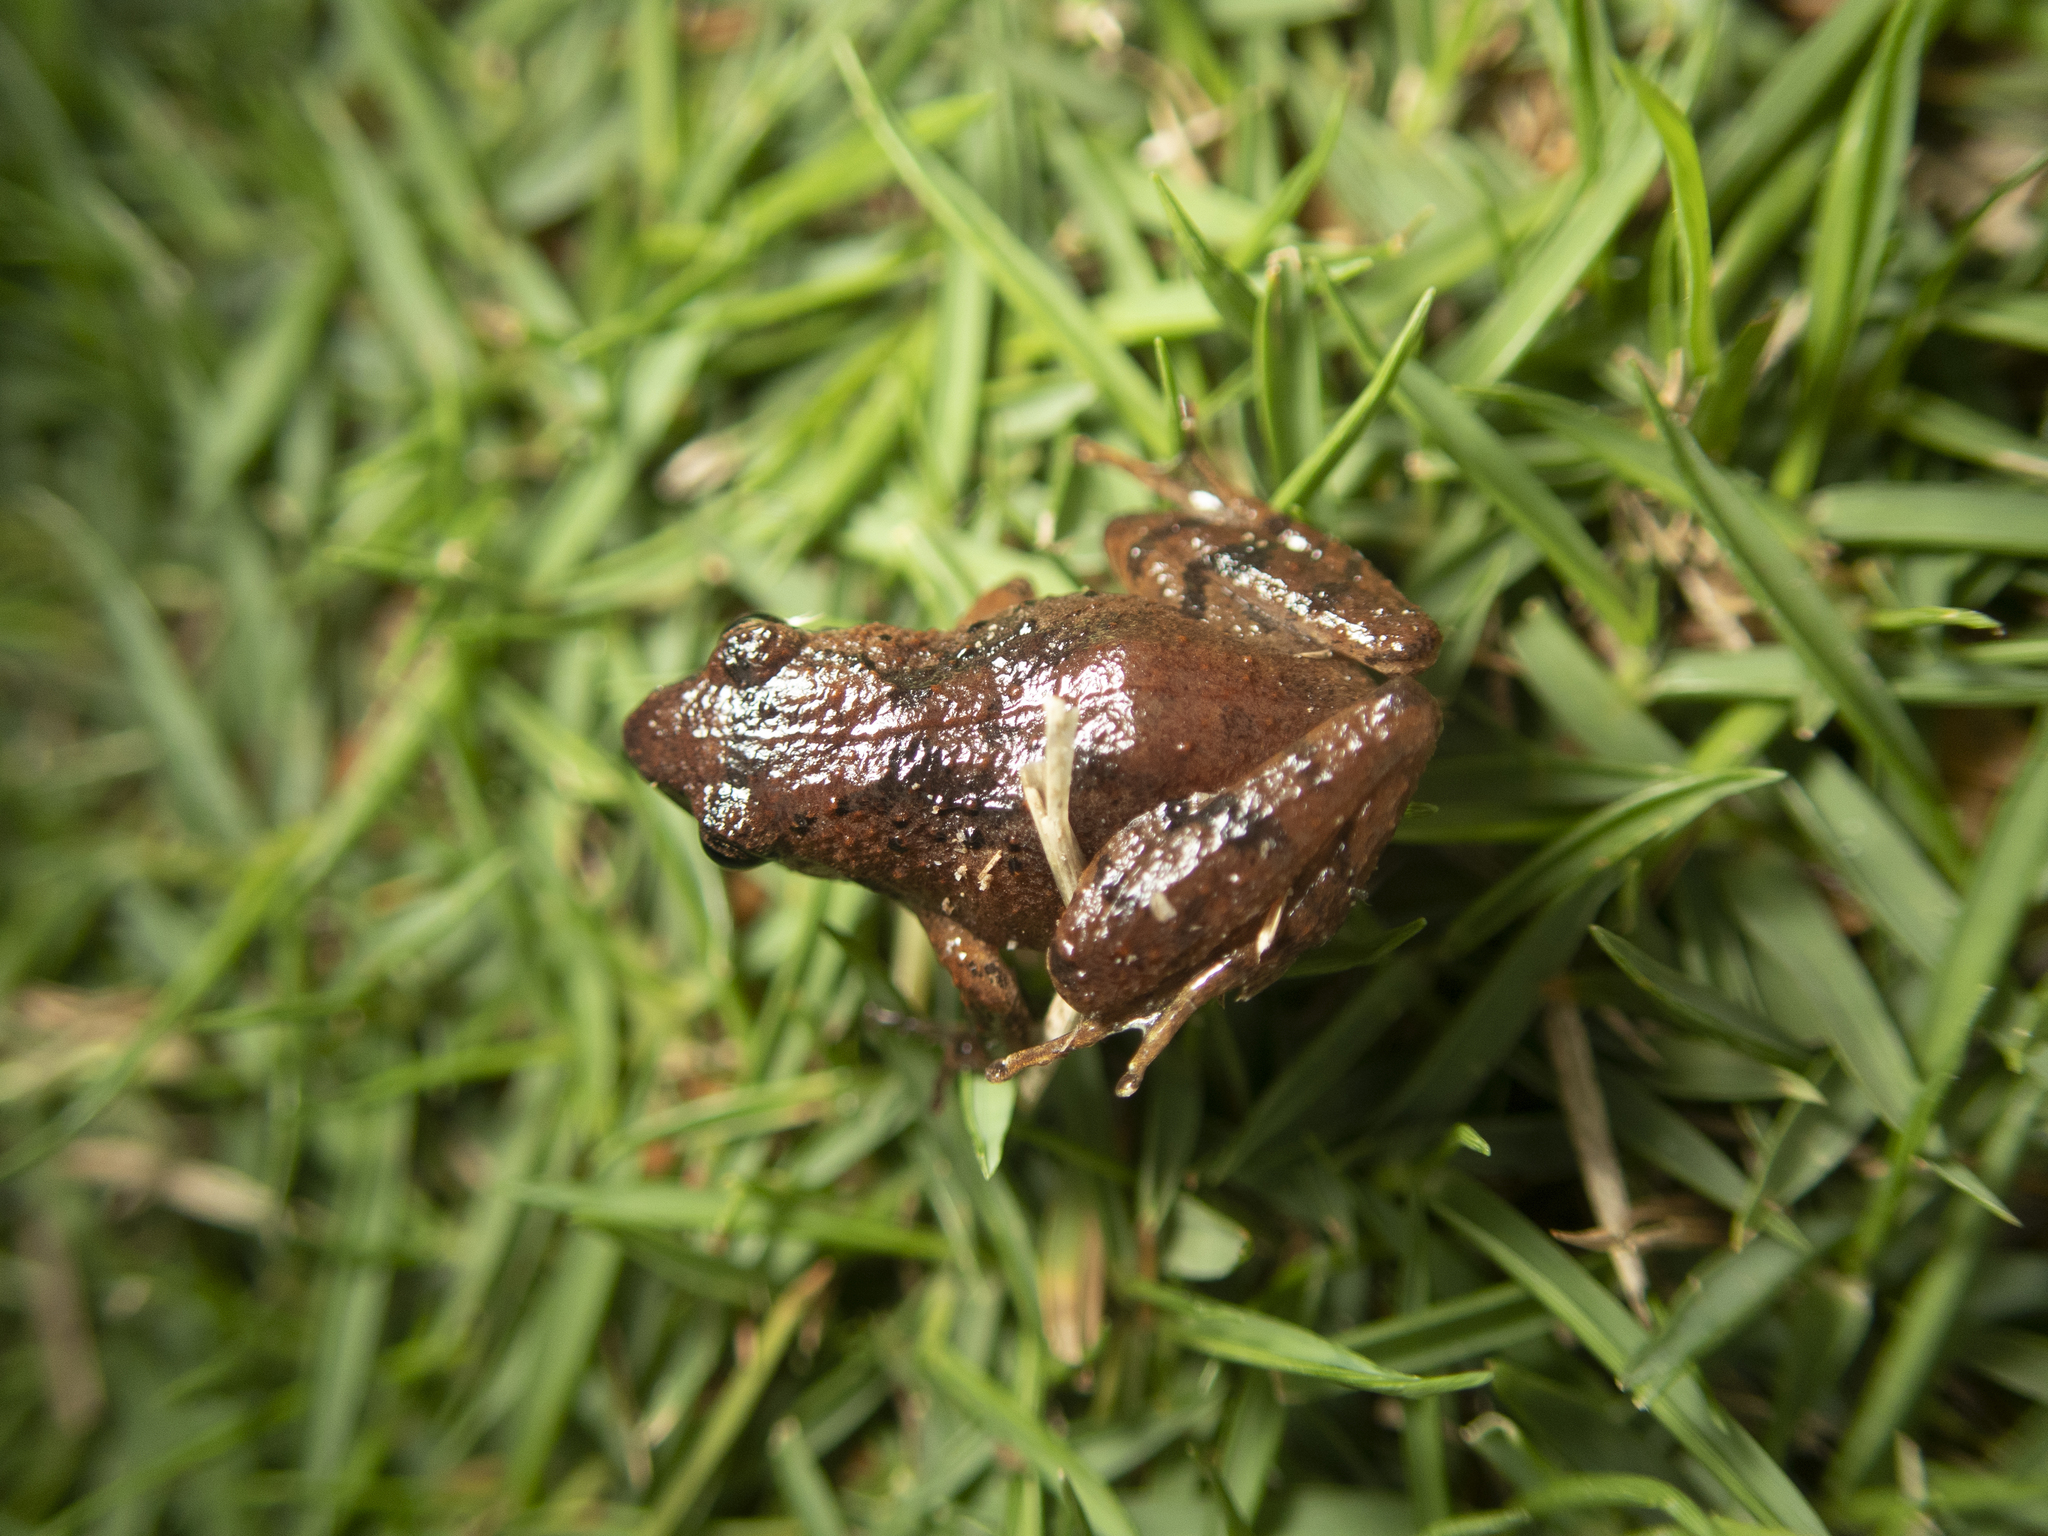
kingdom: Animalia
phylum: Chordata
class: Amphibia
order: Anura
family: Rhacophoridae
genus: Liuixalus
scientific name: Liuixalus romeri
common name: Romer's bubble-nest frog
